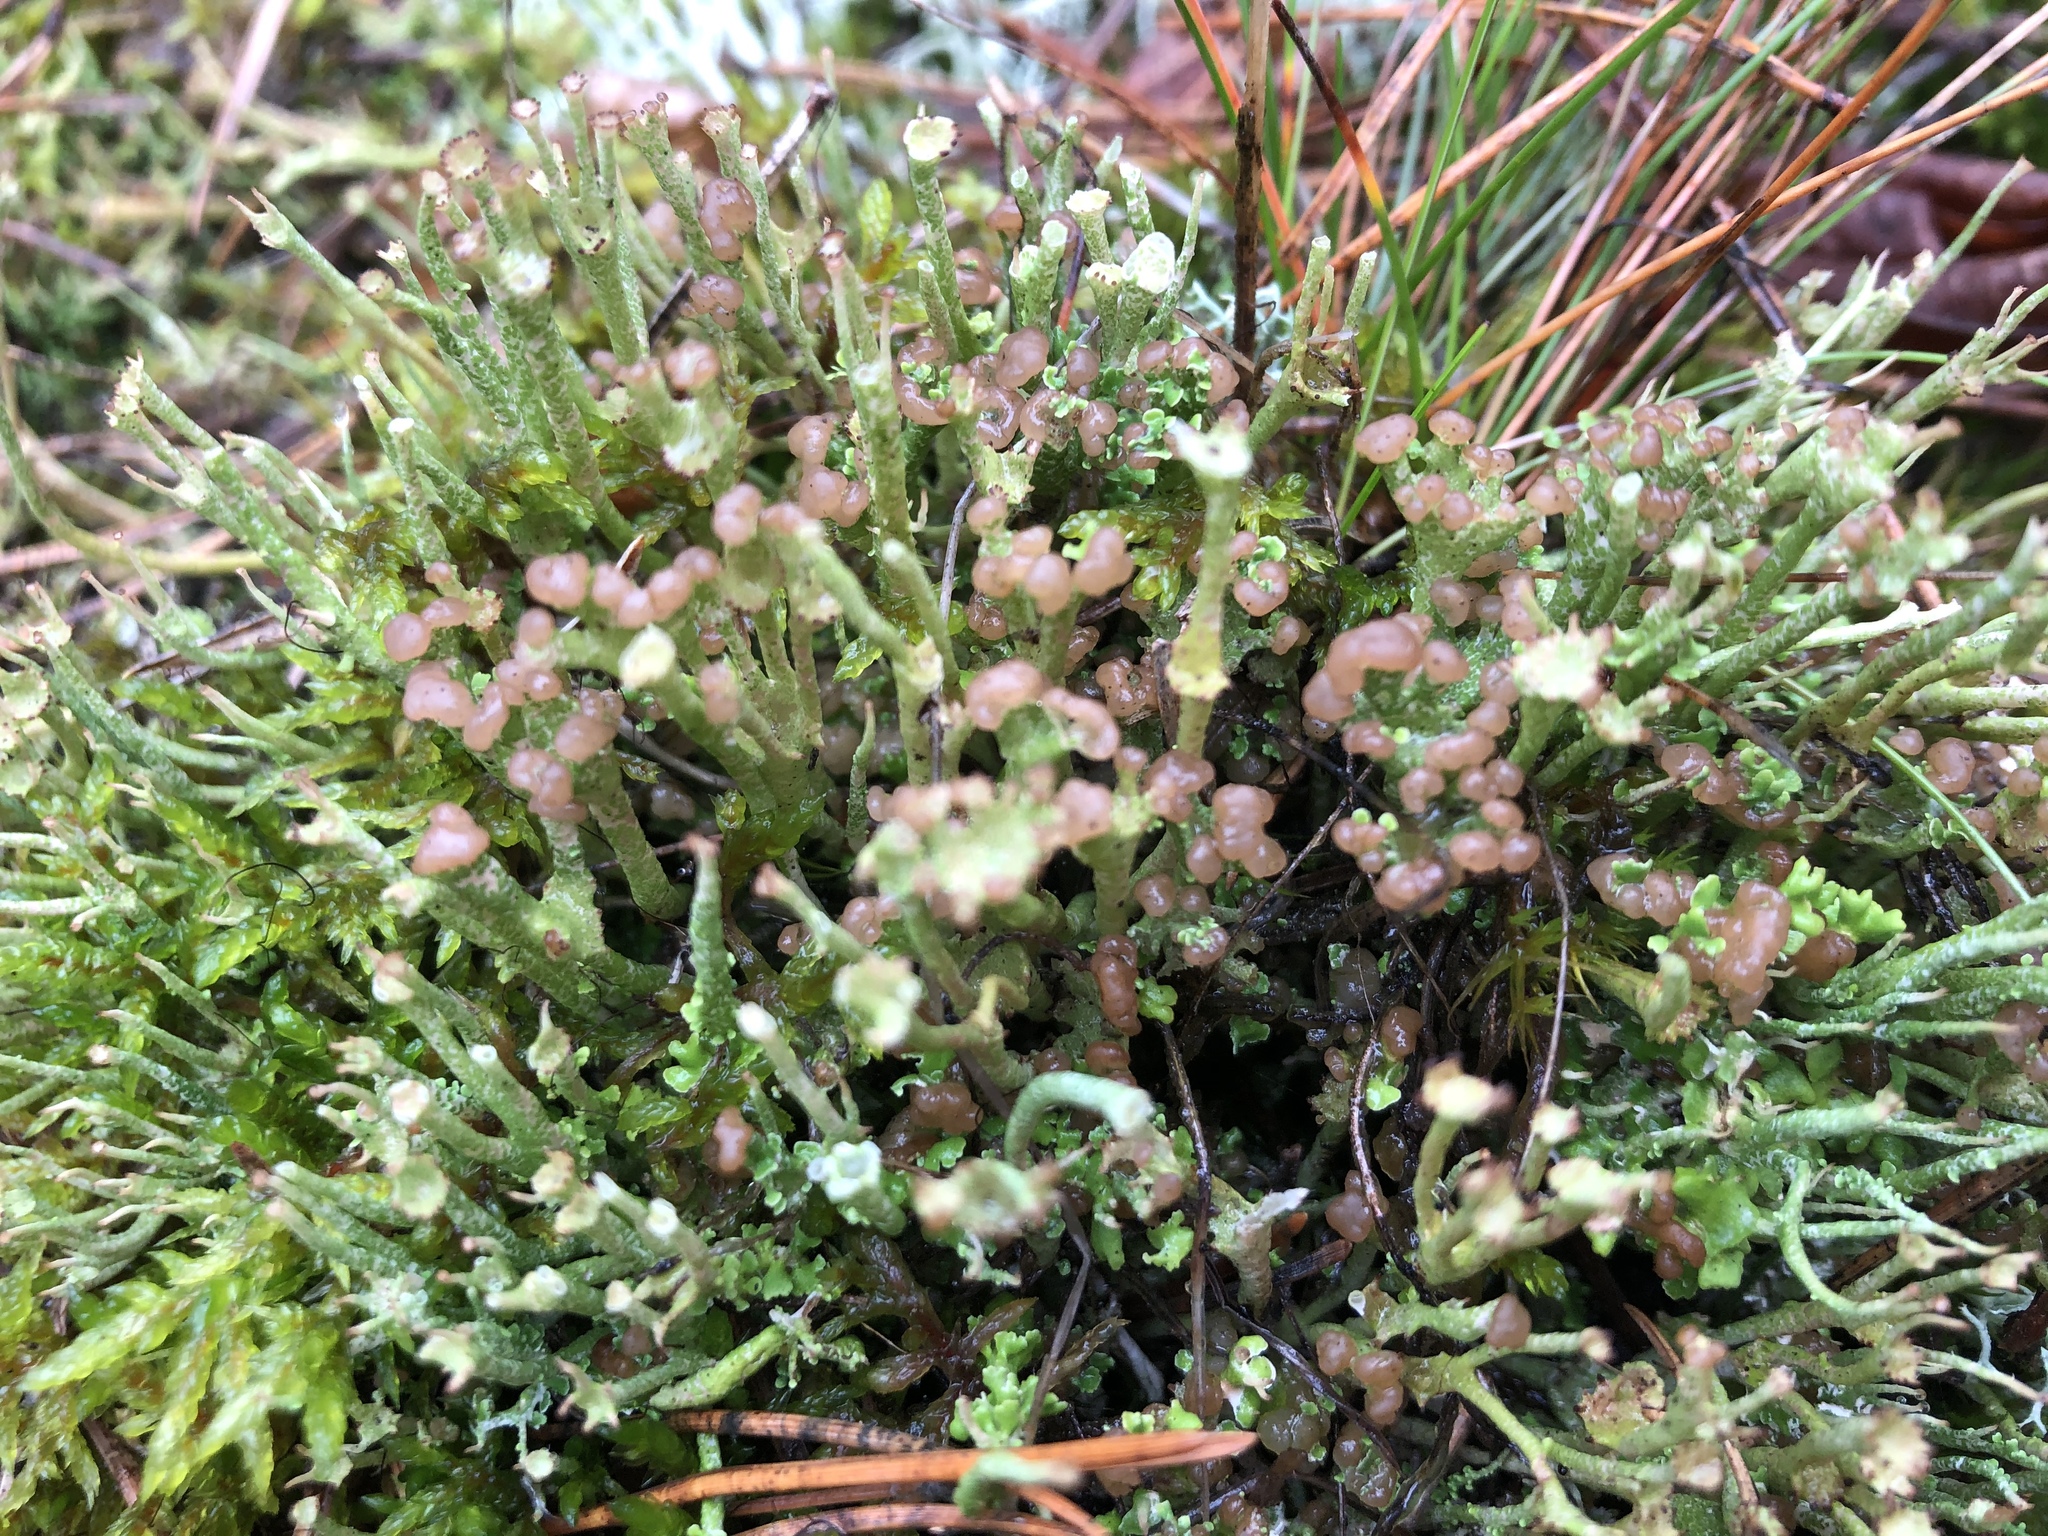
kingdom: Fungi
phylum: Ascomycota
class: Lecanoromycetes
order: Lecanorales
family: Cladoniaceae
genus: Cladonia
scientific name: Cladonia gracilis
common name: Smooth clad lichen
